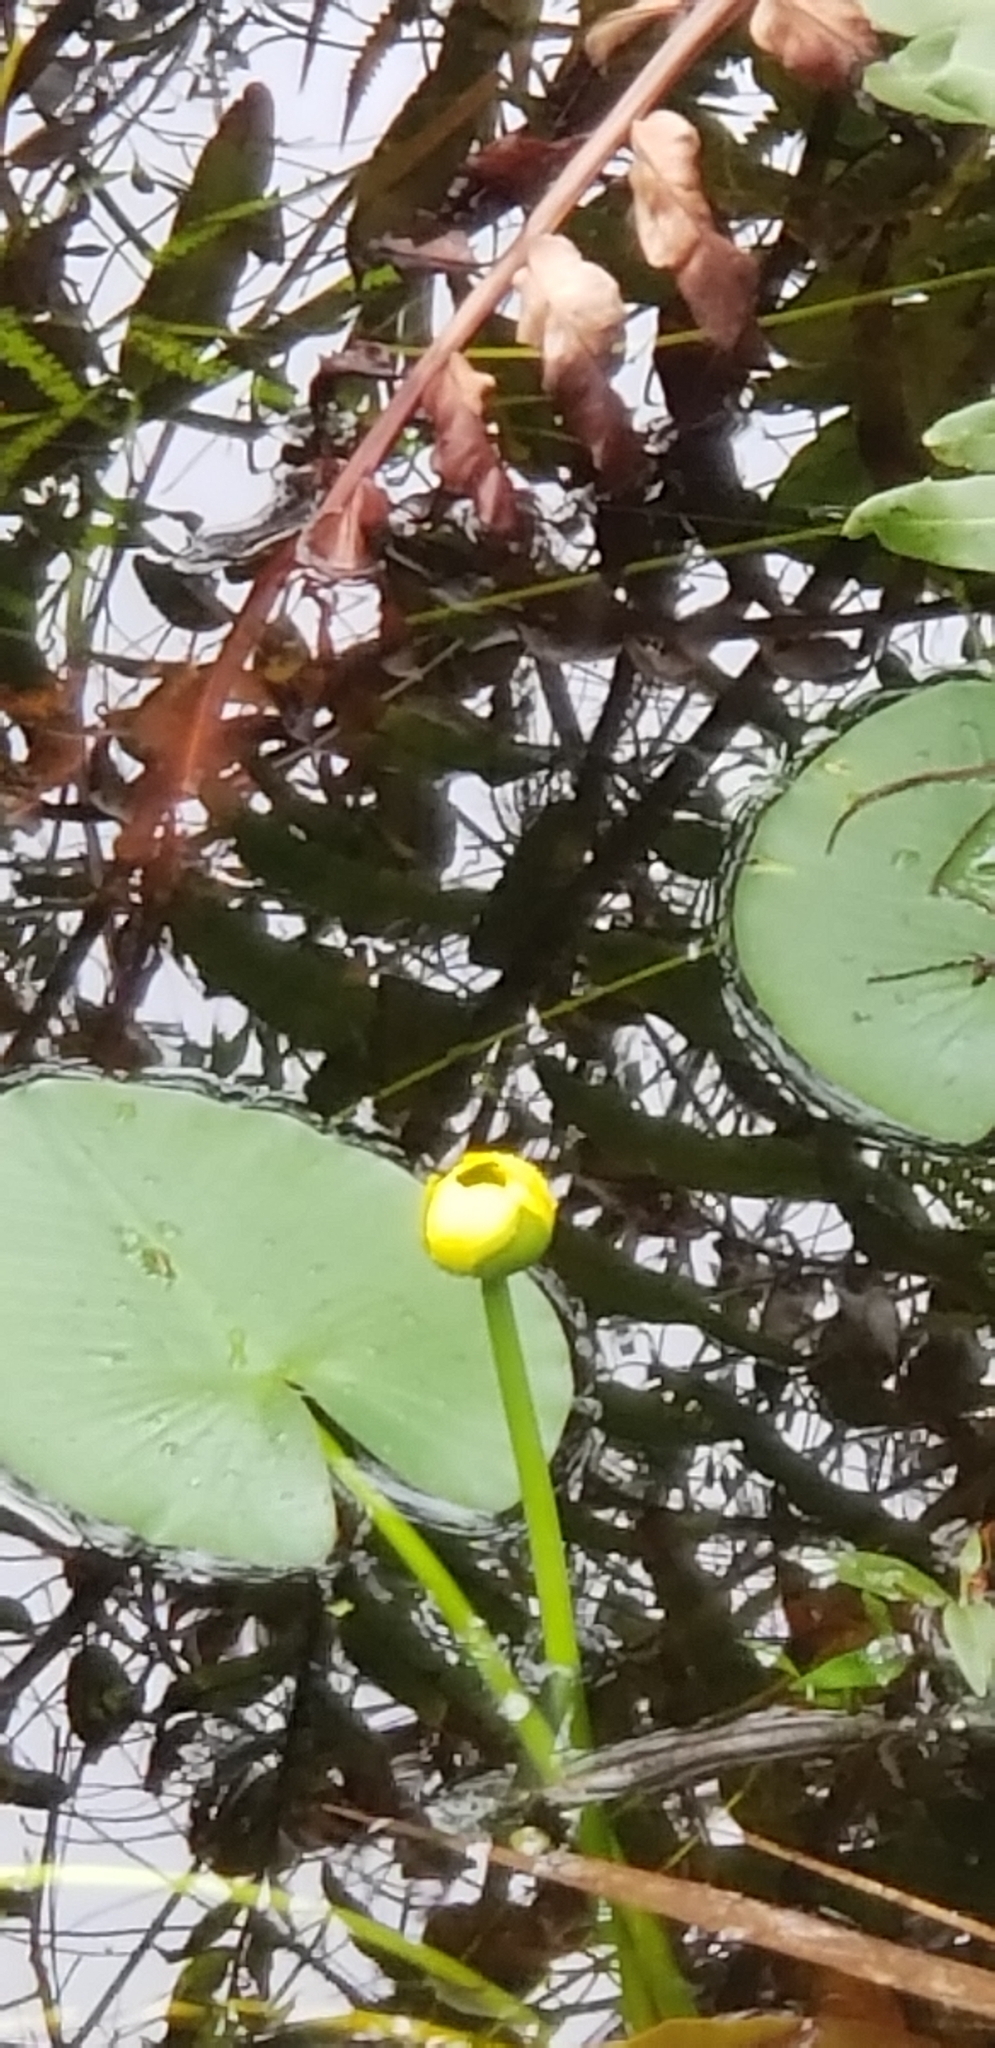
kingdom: Plantae
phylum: Tracheophyta
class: Magnoliopsida
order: Nymphaeales
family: Nymphaeaceae
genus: Nuphar
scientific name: Nuphar advena
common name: Spatter-dock
